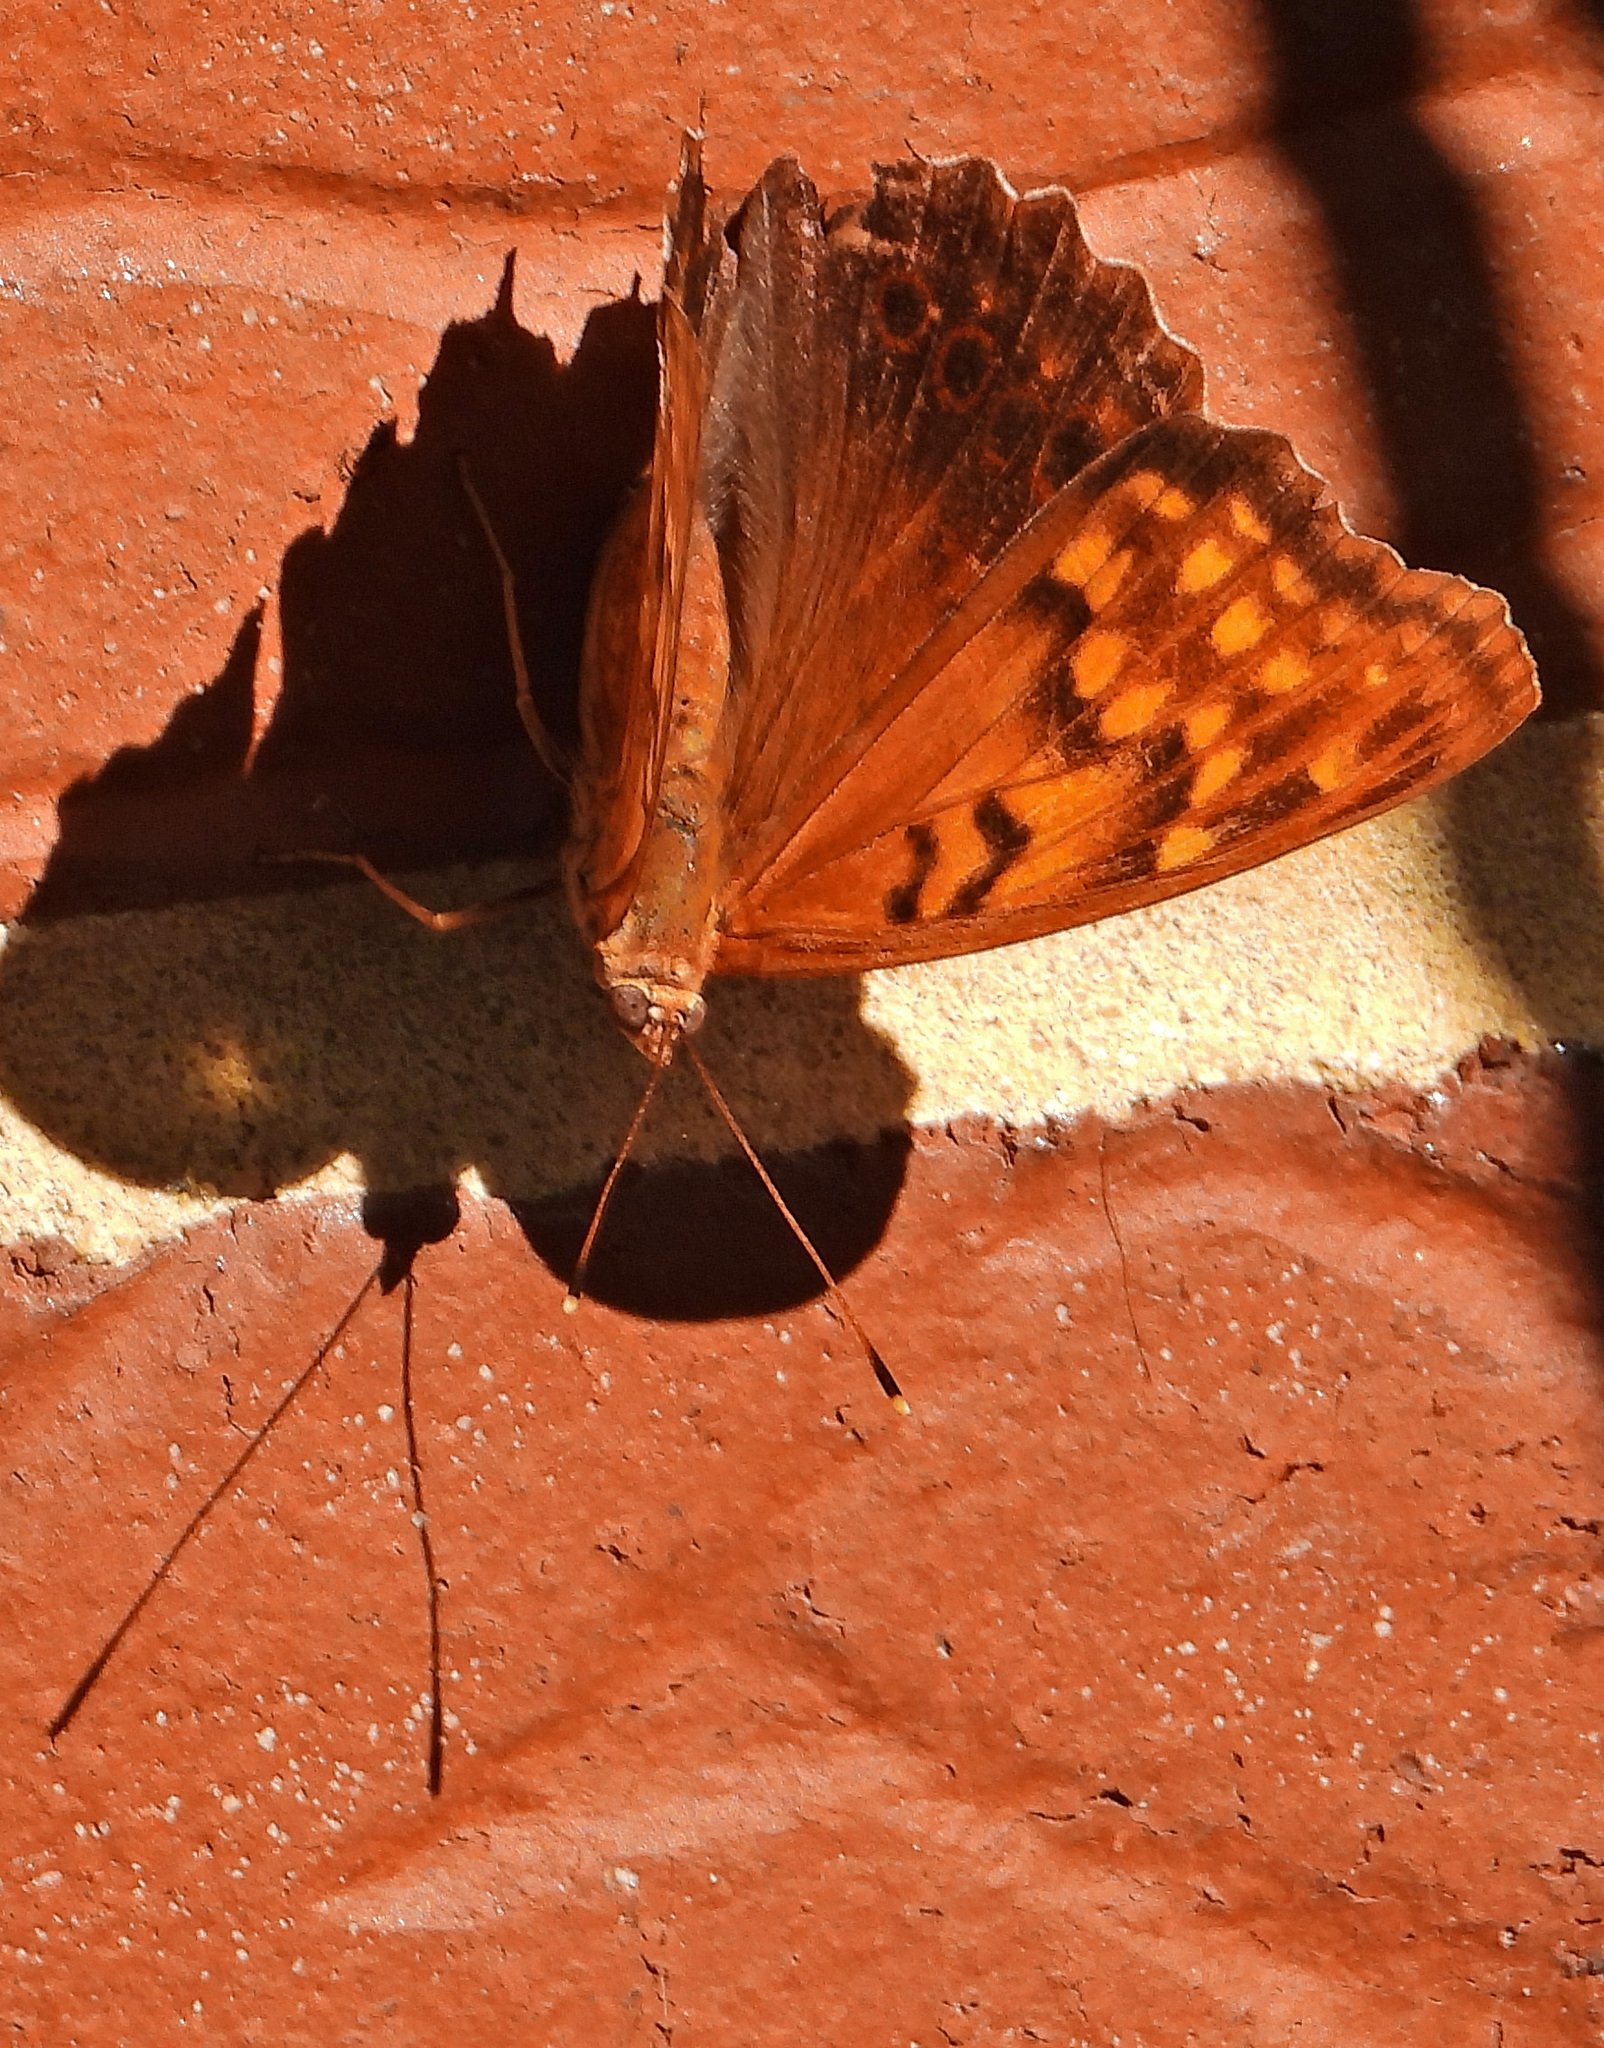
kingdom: Animalia
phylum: Arthropoda
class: Insecta
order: Lepidoptera
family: Nymphalidae
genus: Asterocampa
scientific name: Asterocampa clyton
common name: Tawny emperor
